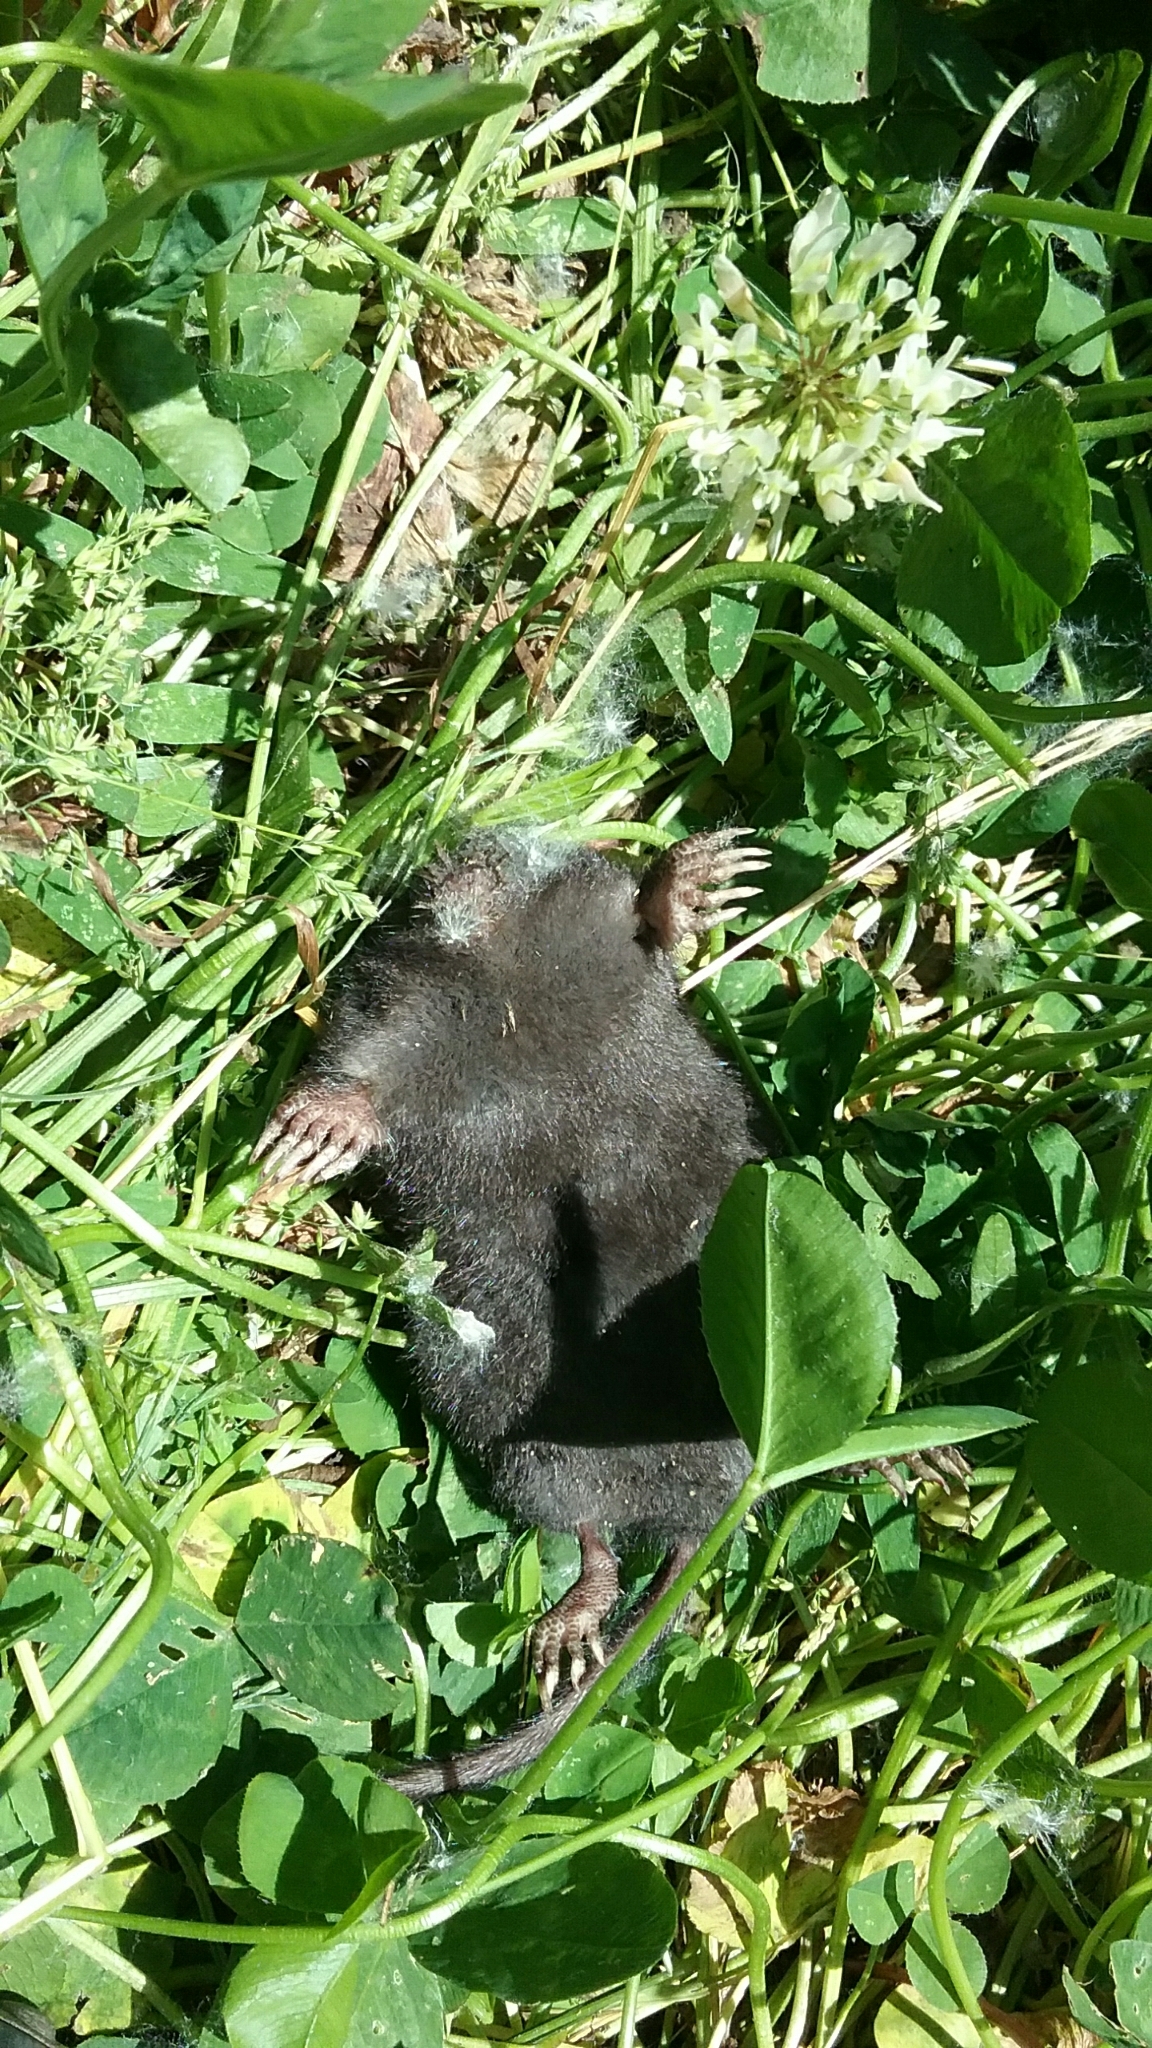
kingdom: Animalia
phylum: Chordata
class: Mammalia
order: Soricomorpha
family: Talpidae
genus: Condylura
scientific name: Condylura cristata
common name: Star-nosed mole
